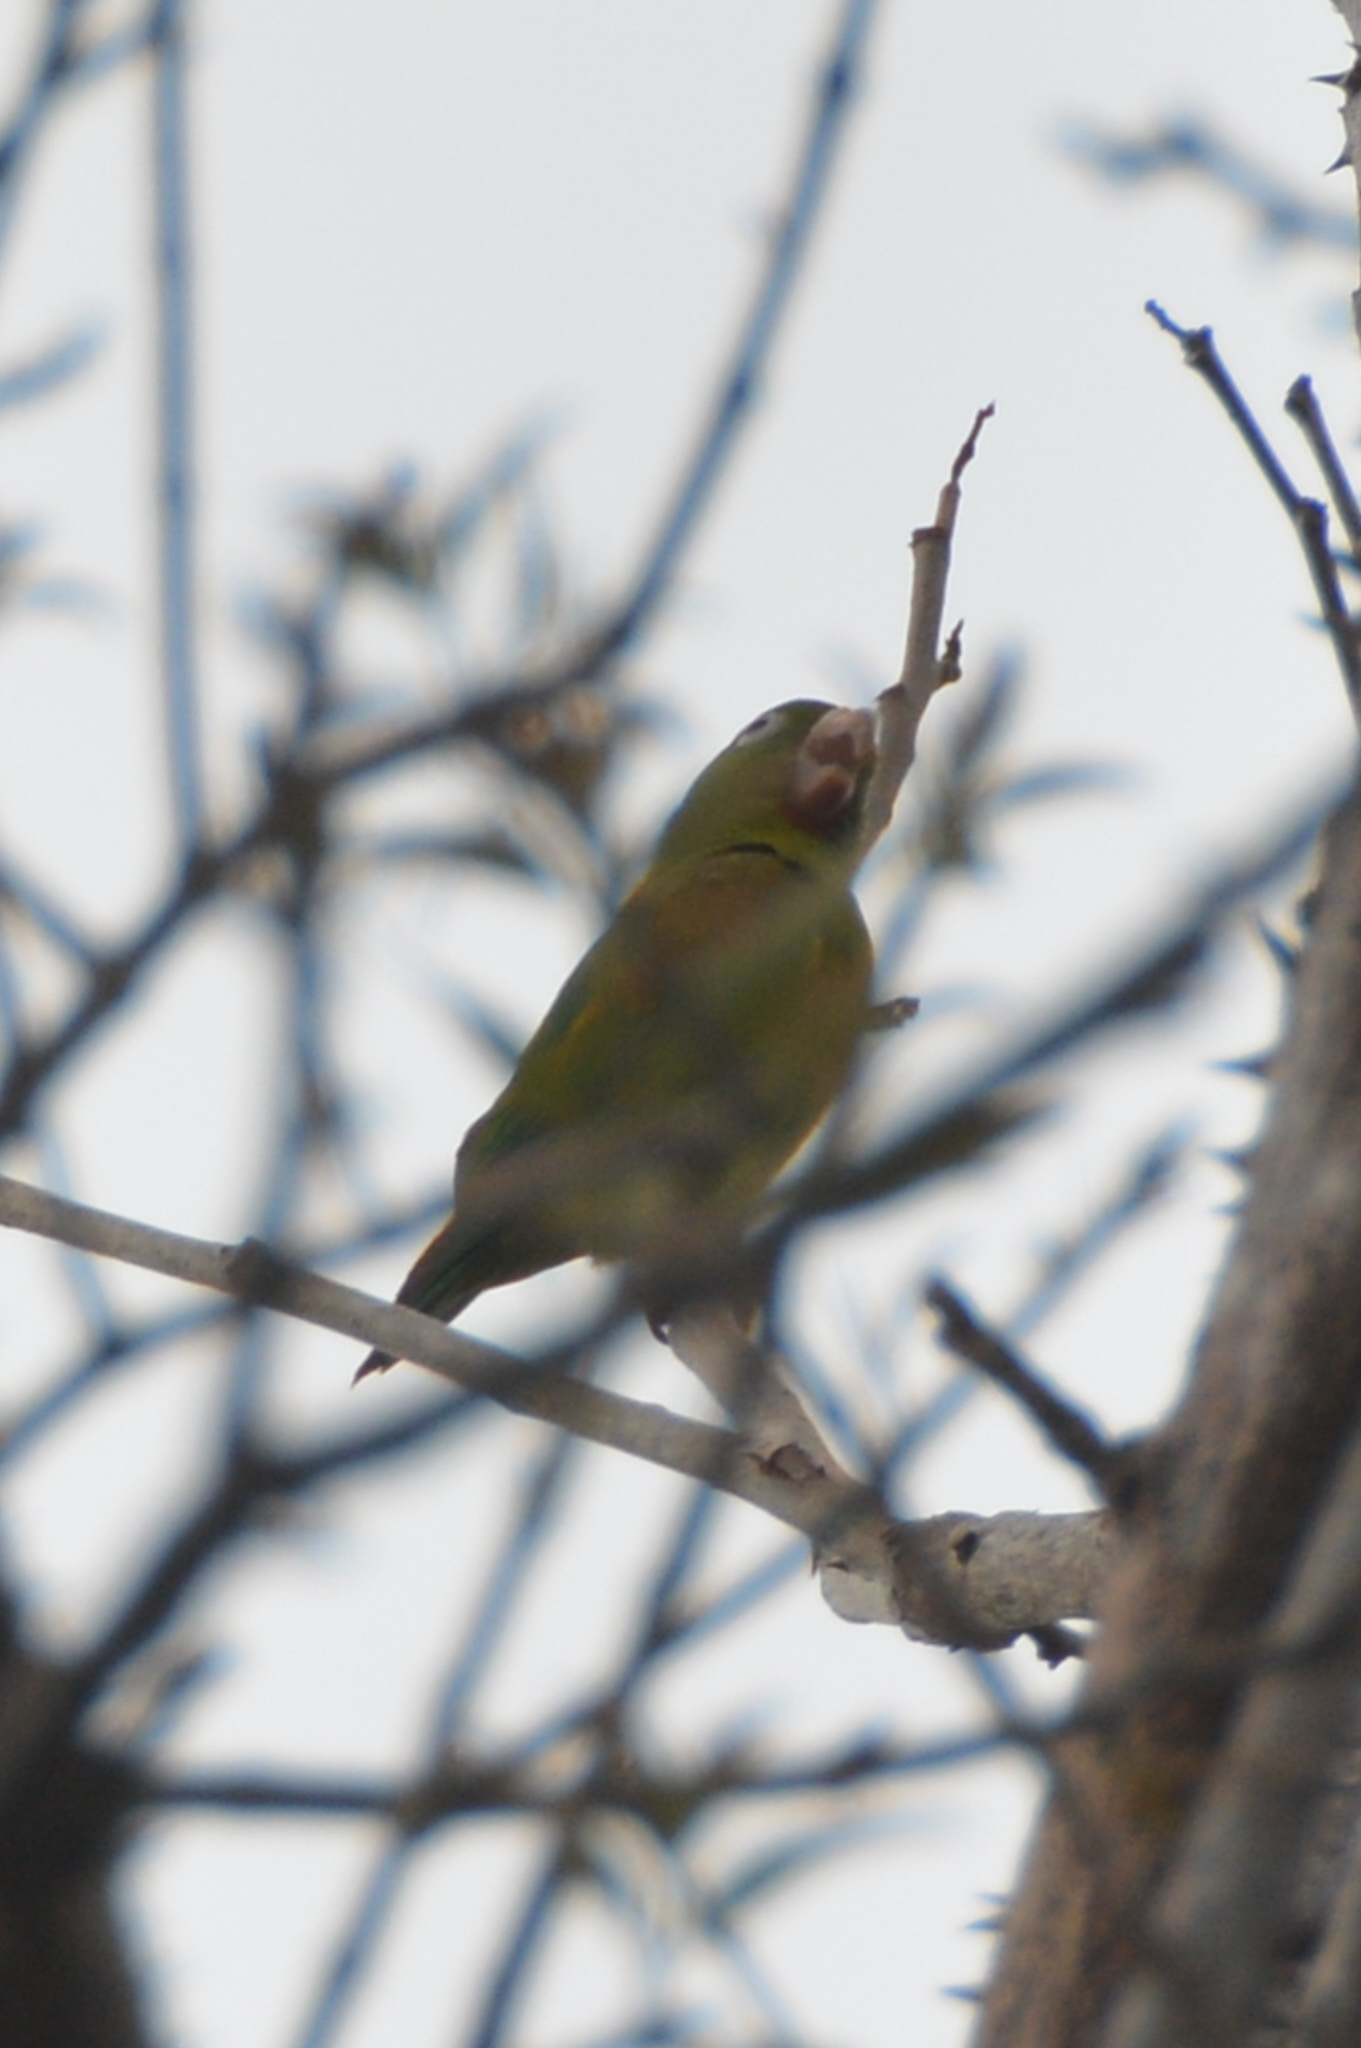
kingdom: Animalia
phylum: Chordata
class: Aves
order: Psittaciformes
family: Psittacidae
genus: Brotogeris
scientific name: Brotogeris jugularis
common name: Orange-chinned parakeet
